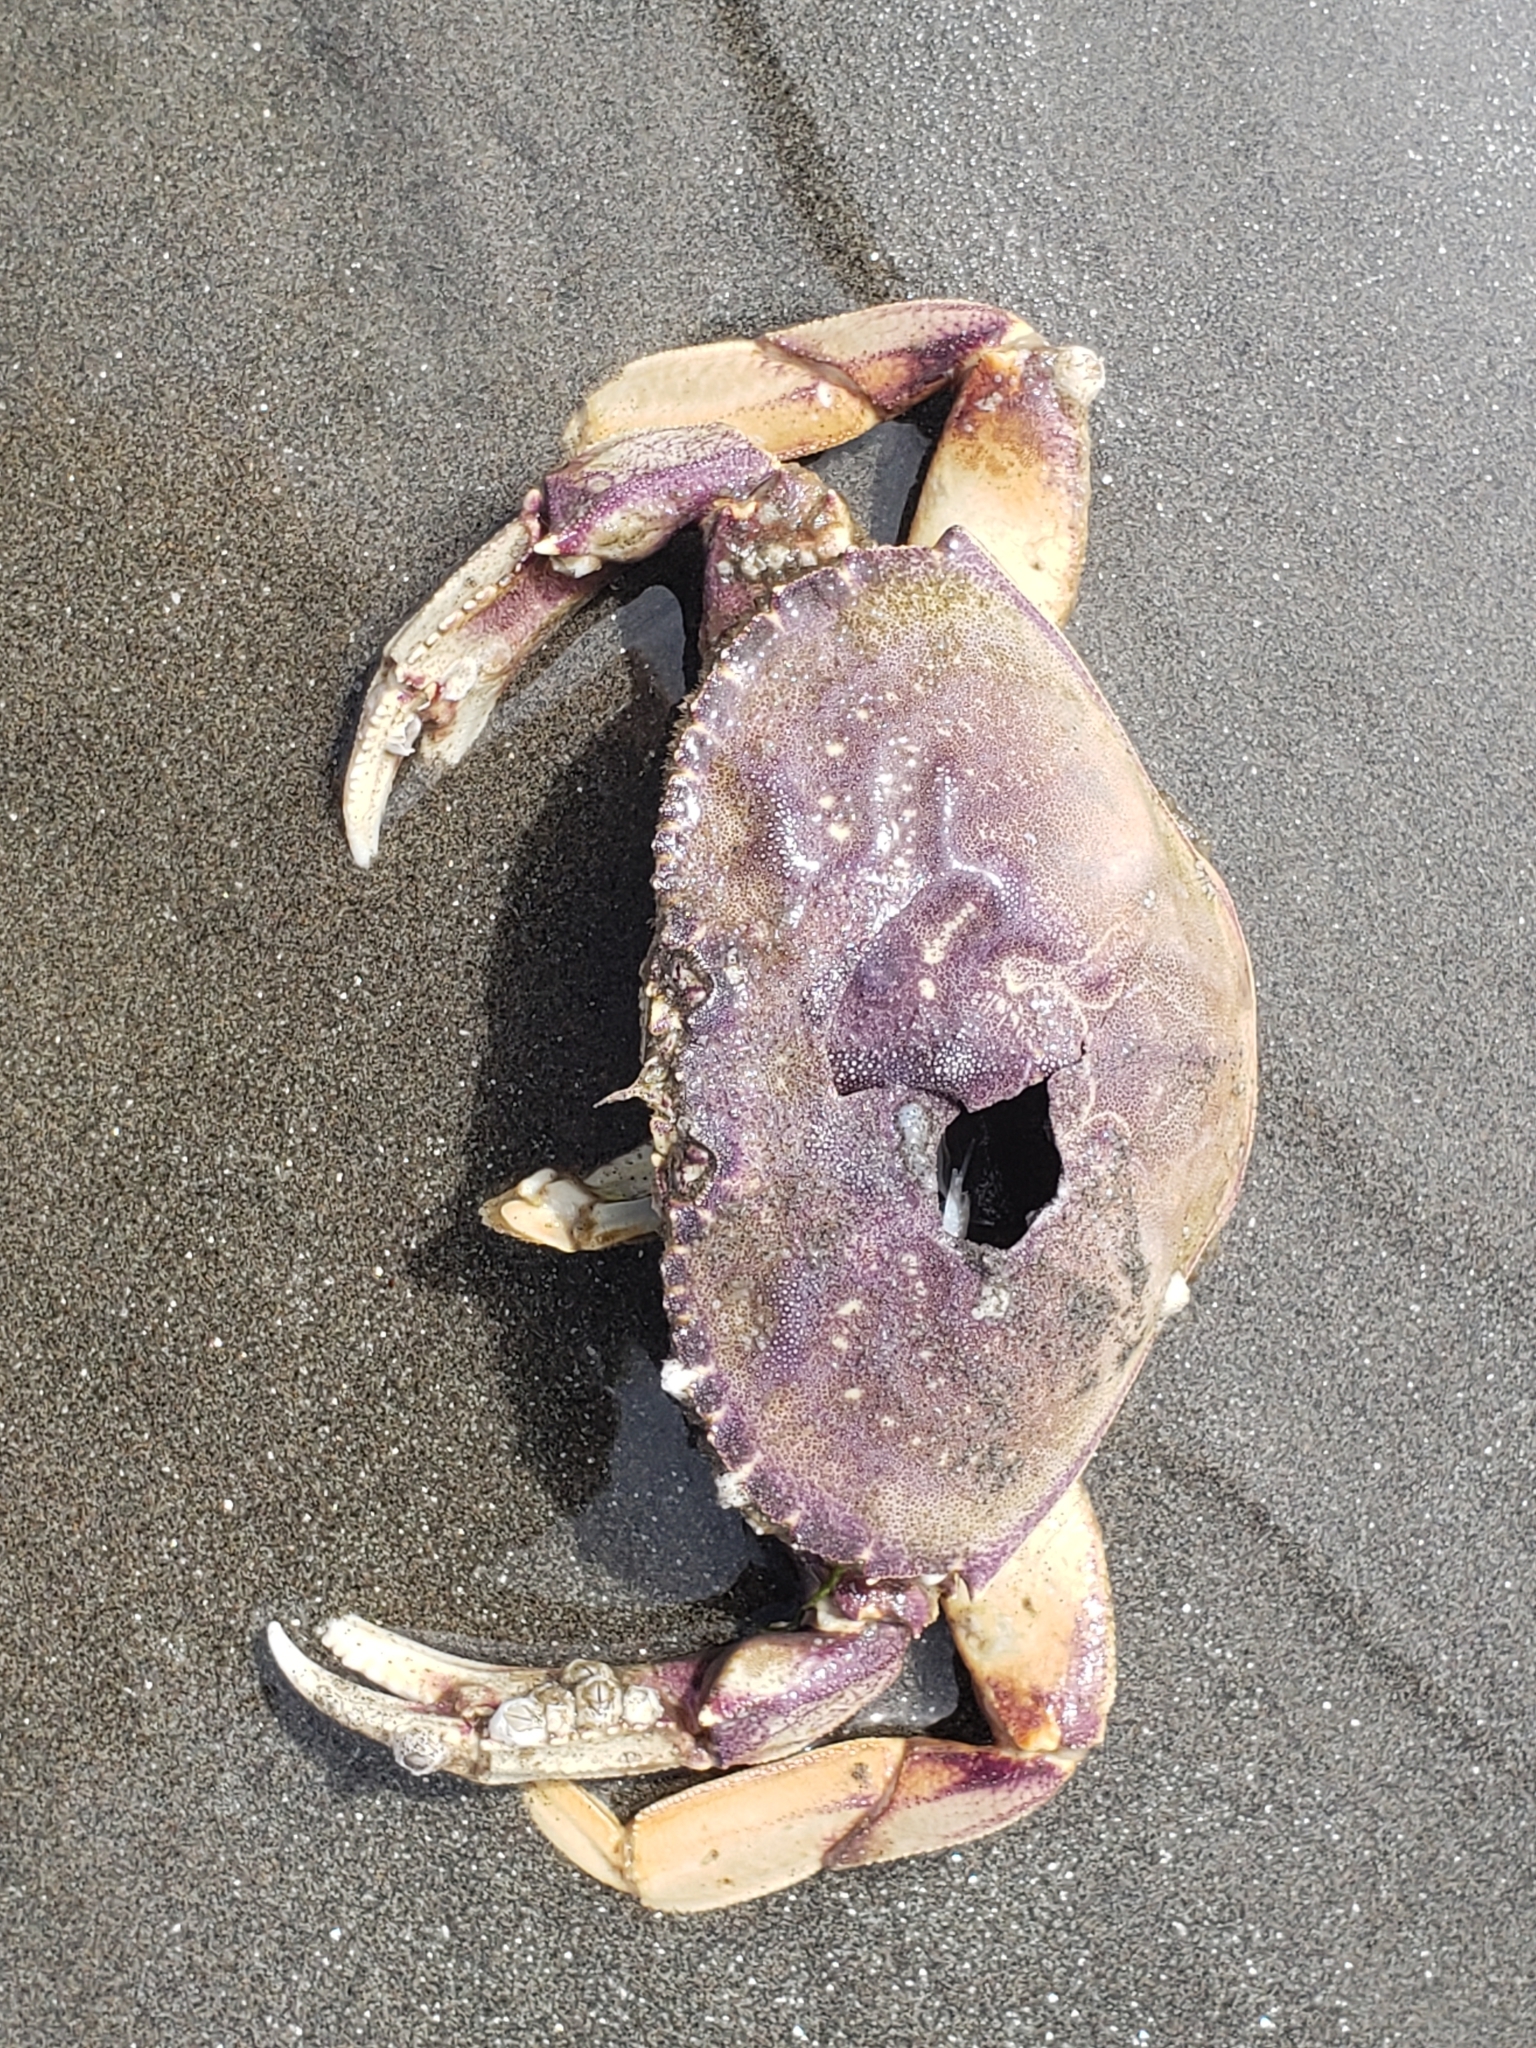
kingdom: Animalia
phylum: Arthropoda
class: Malacostraca
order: Decapoda
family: Cancridae
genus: Metacarcinus
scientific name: Metacarcinus magister
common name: Californian crab
